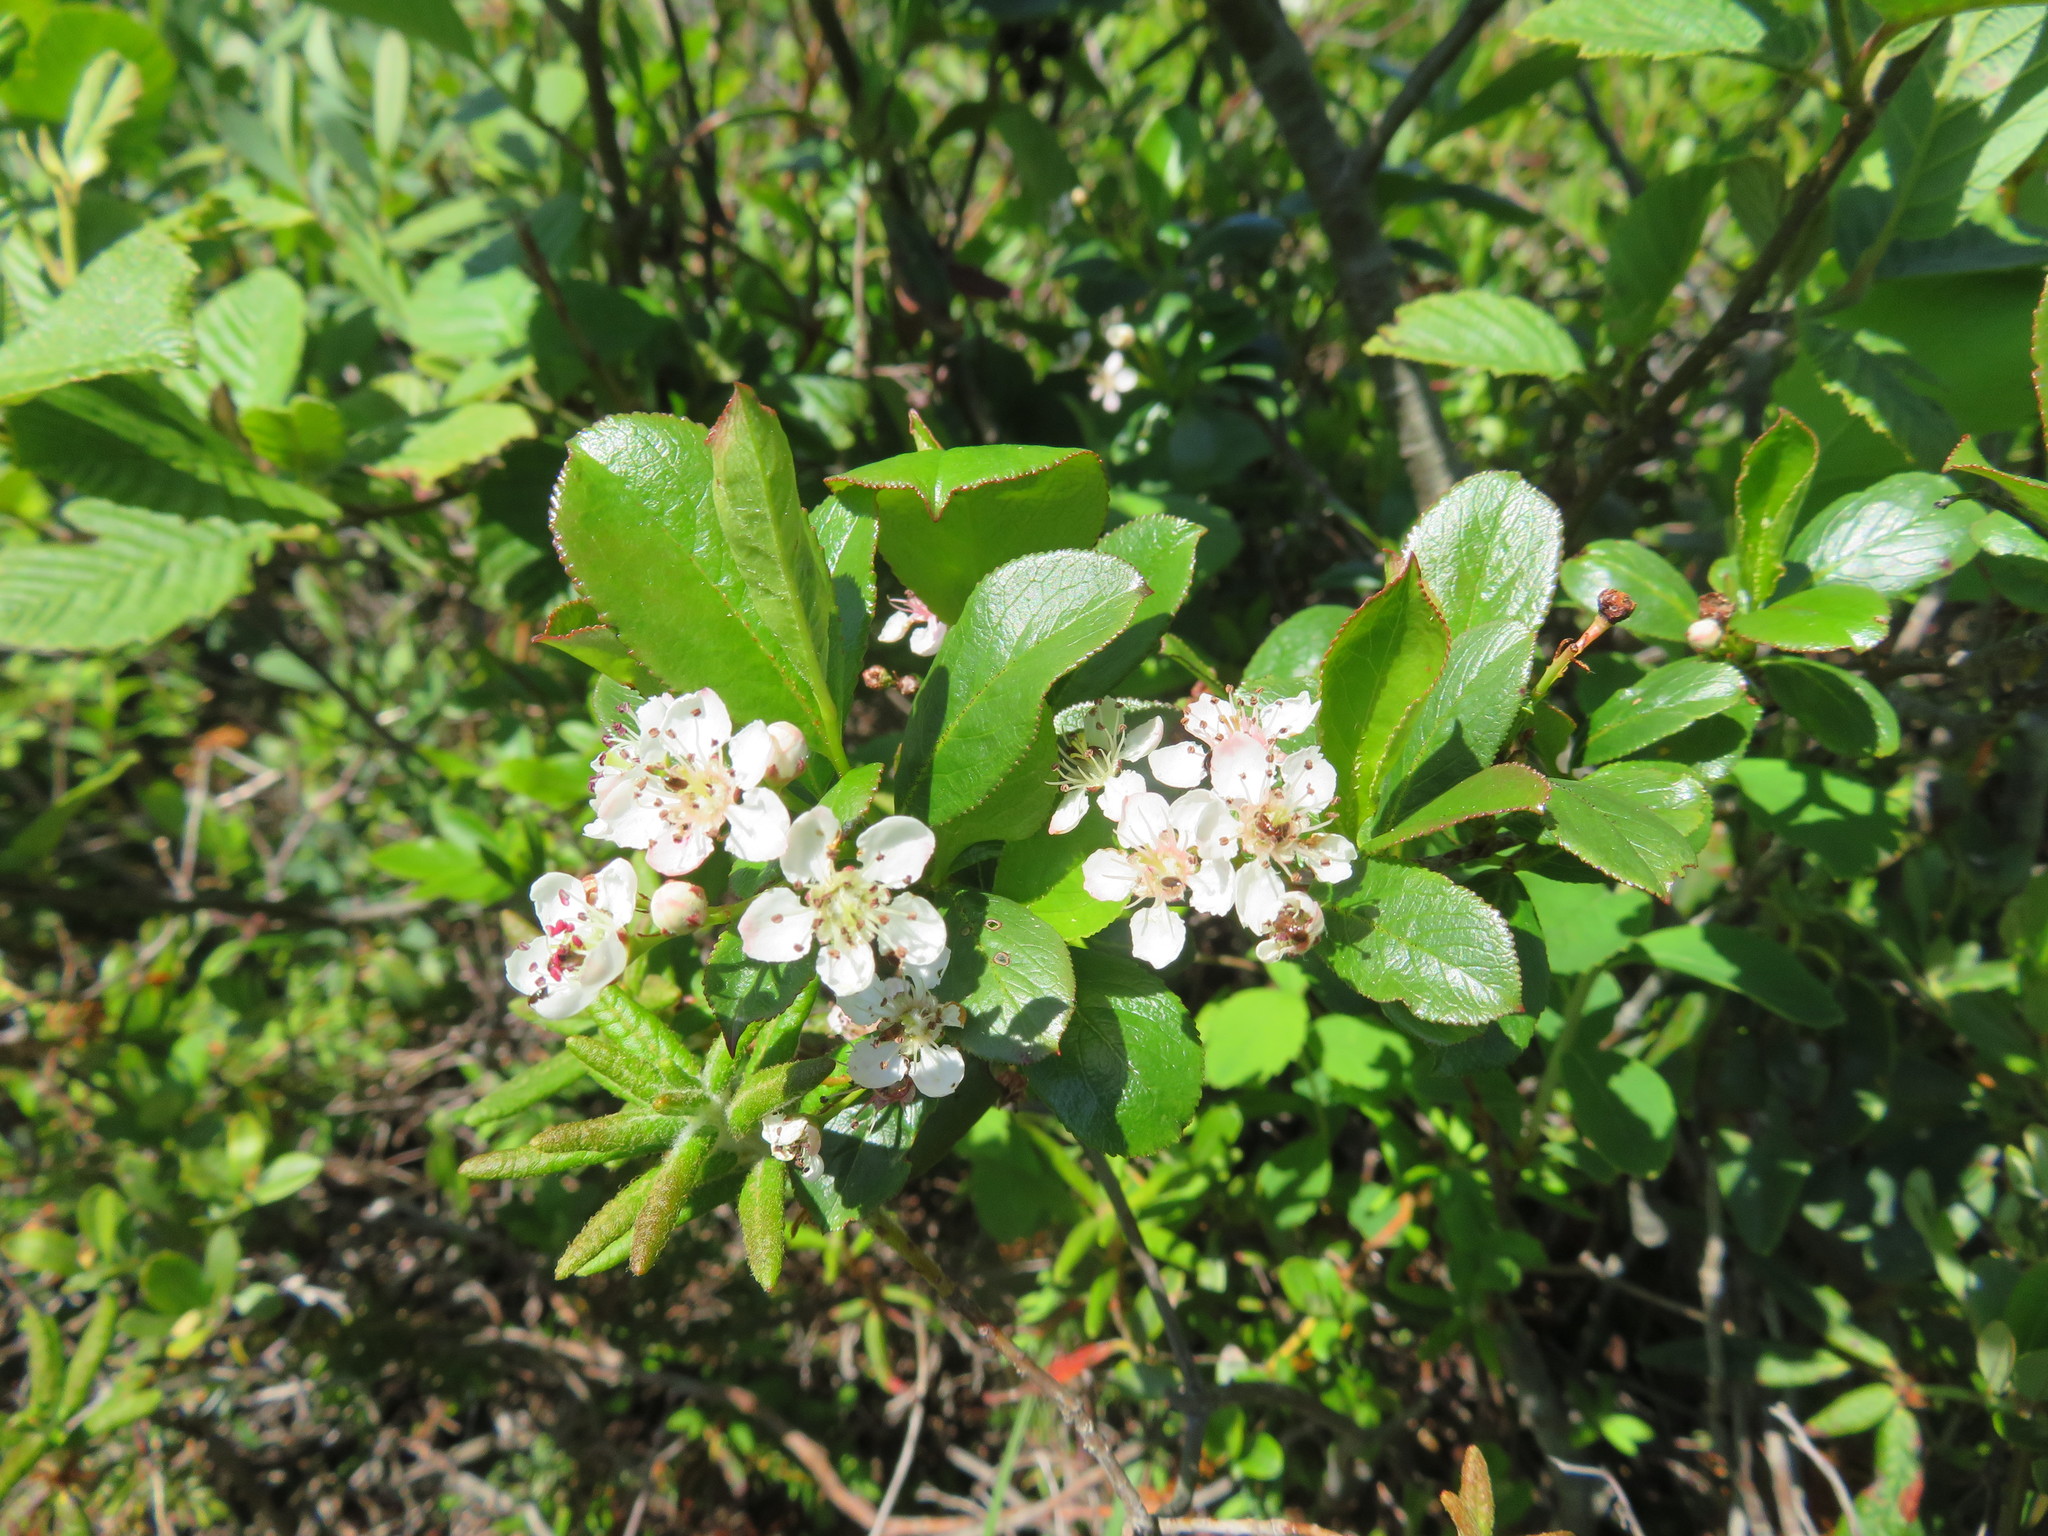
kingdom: Plantae
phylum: Tracheophyta
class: Magnoliopsida
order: Rosales
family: Rosaceae
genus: Aronia
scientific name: Aronia melanocarpa
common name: Black chokeberry
